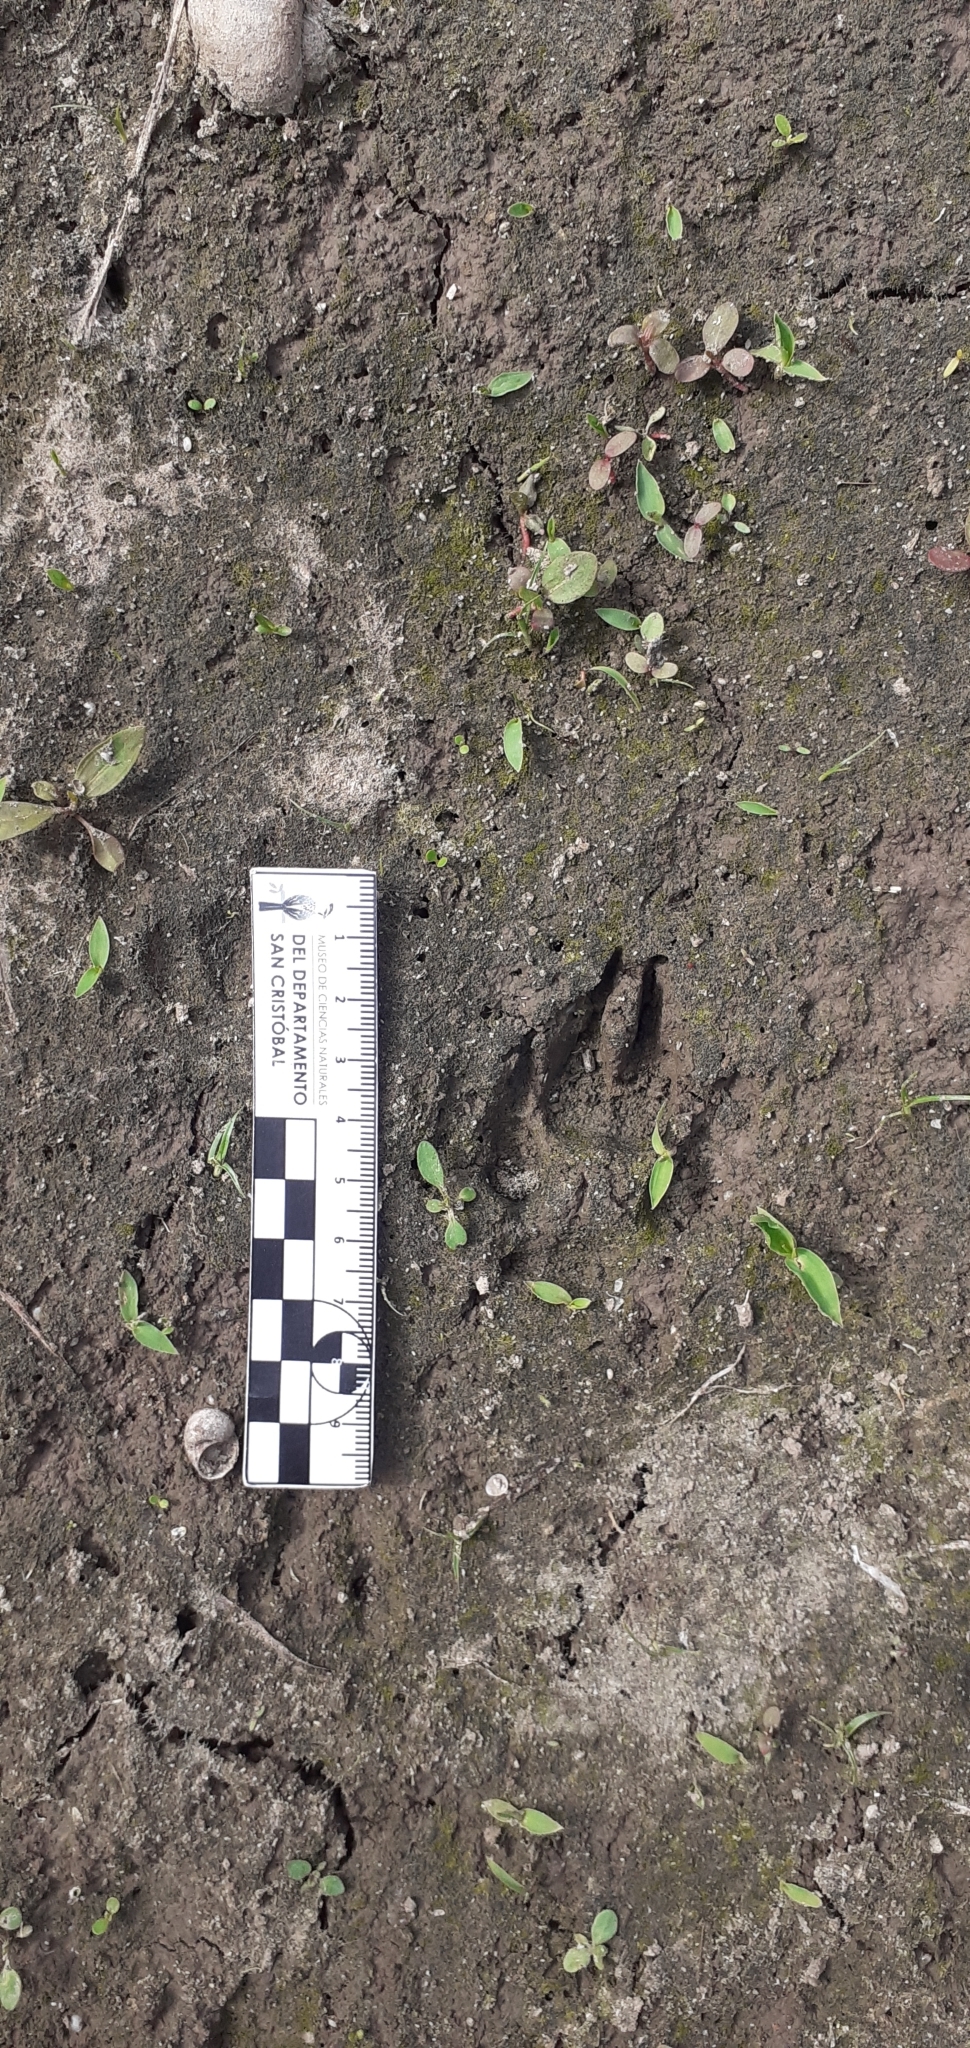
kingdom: Animalia
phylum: Chordata
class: Mammalia
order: Carnivora
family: Canidae
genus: Canis
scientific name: Canis lupus
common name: Gray wolf
